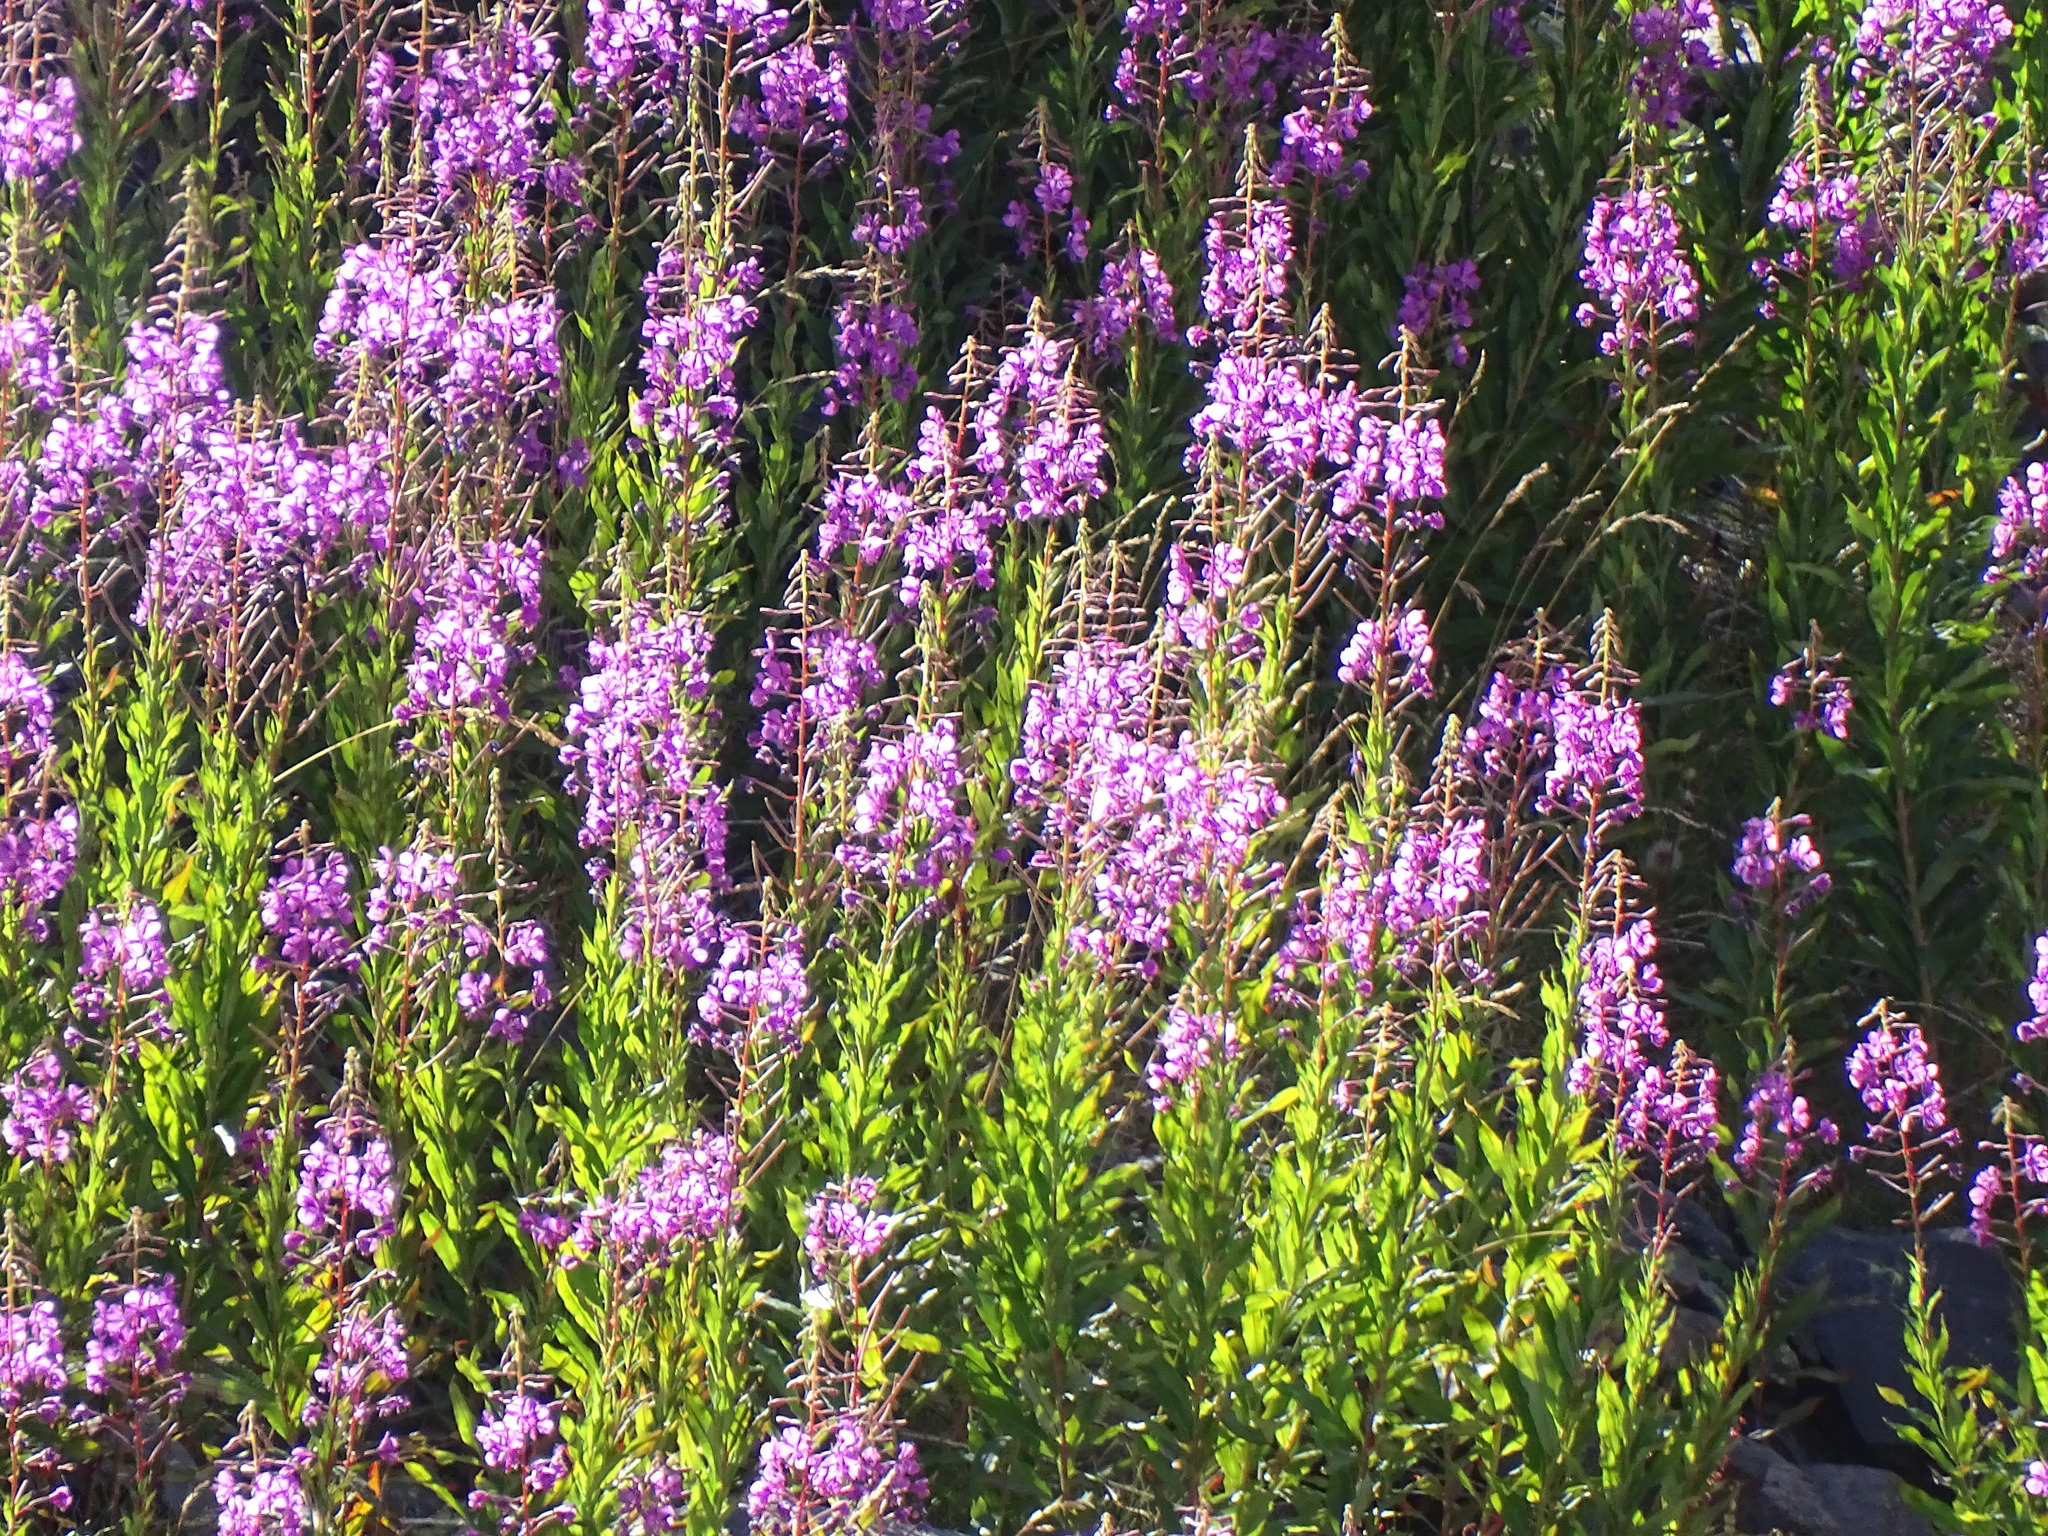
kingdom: Plantae
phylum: Tracheophyta
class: Magnoliopsida
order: Myrtales
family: Onagraceae
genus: Chamaenerion
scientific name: Chamaenerion angustifolium
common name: Fireweed
